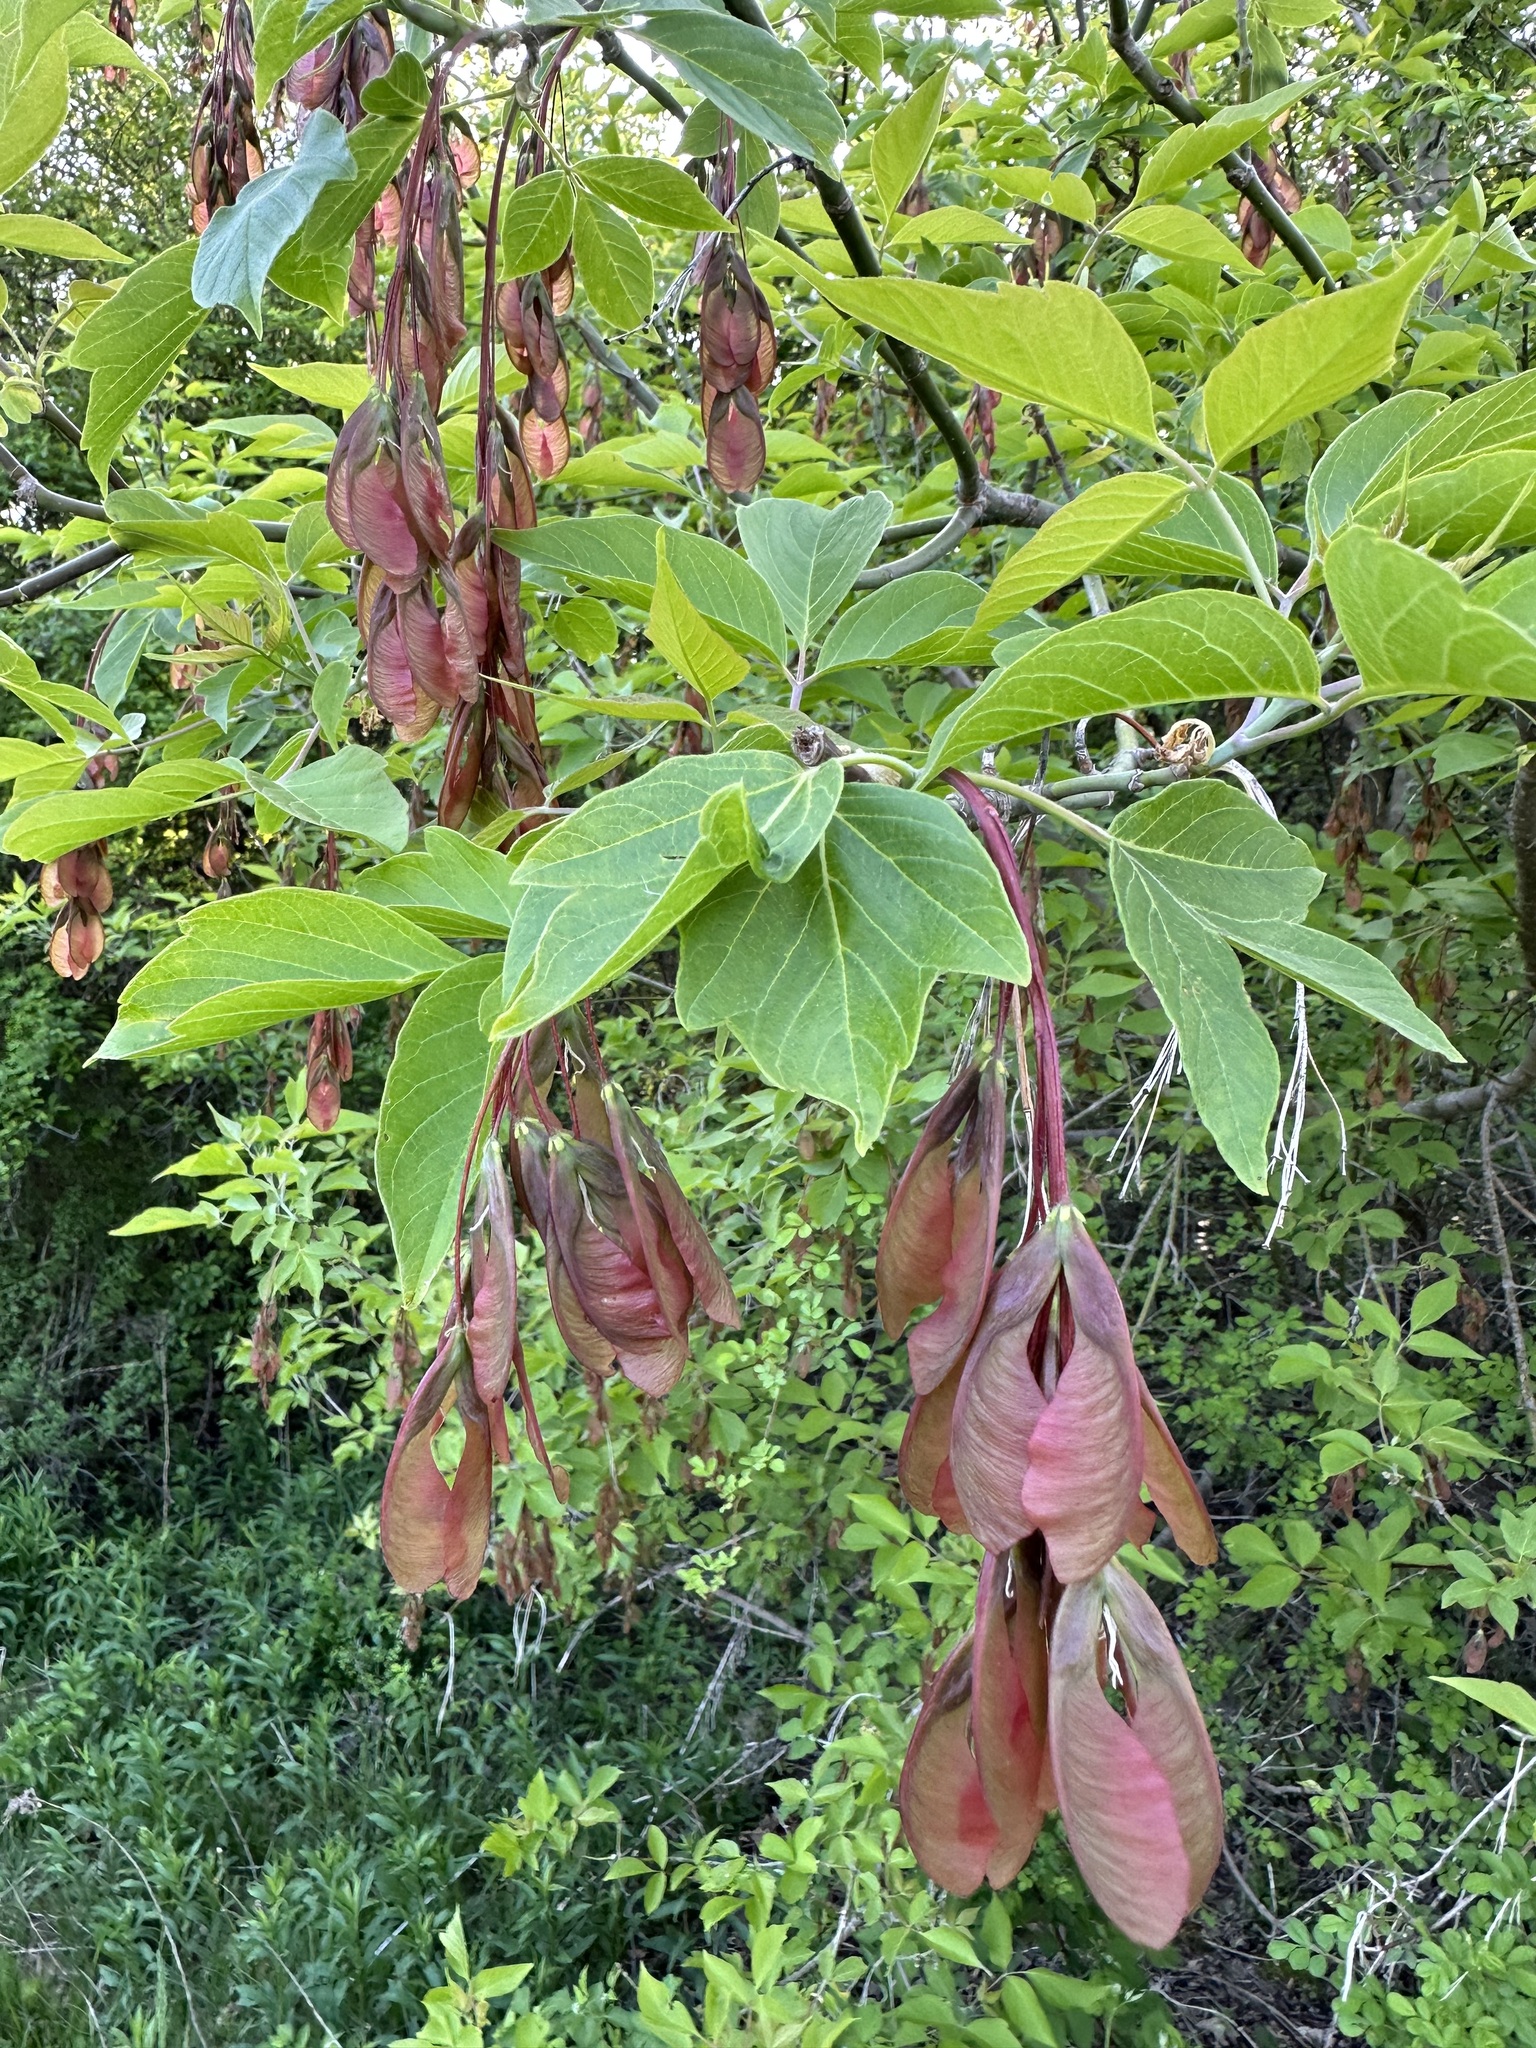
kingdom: Plantae
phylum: Tracheophyta
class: Magnoliopsida
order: Sapindales
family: Sapindaceae
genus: Acer
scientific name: Acer negundo
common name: Ashleaf maple
